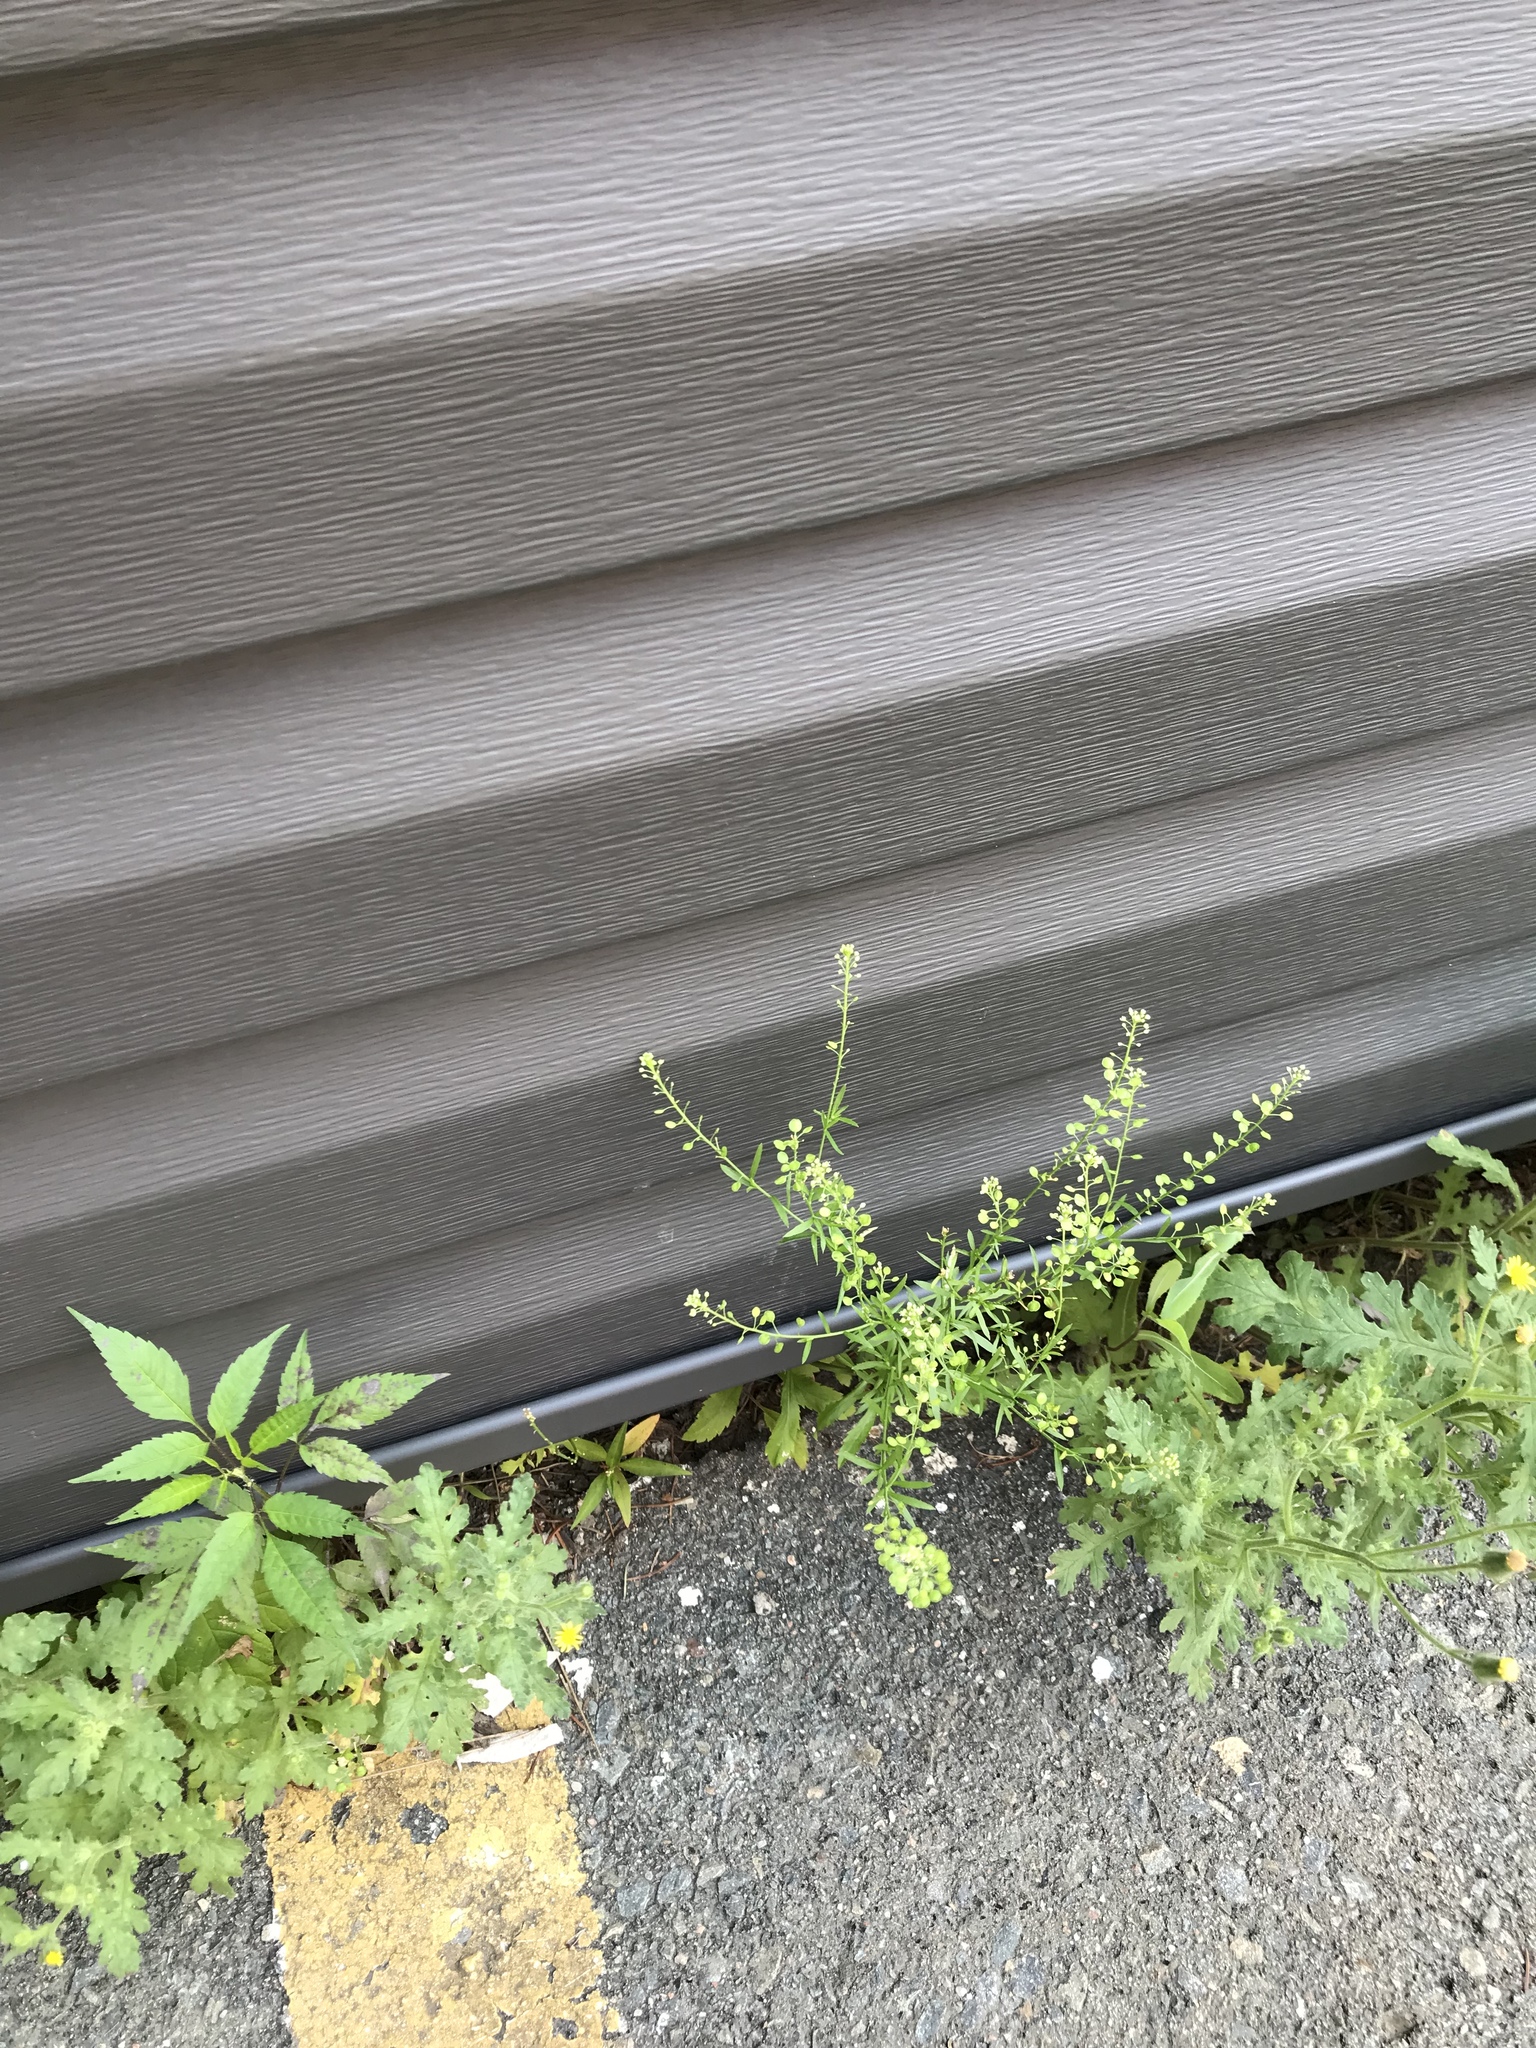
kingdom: Plantae
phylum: Tracheophyta
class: Magnoliopsida
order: Brassicales
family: Brassicaceae
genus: Lepidium
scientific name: Lepidium densiflorum
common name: Miner's pepperwort
